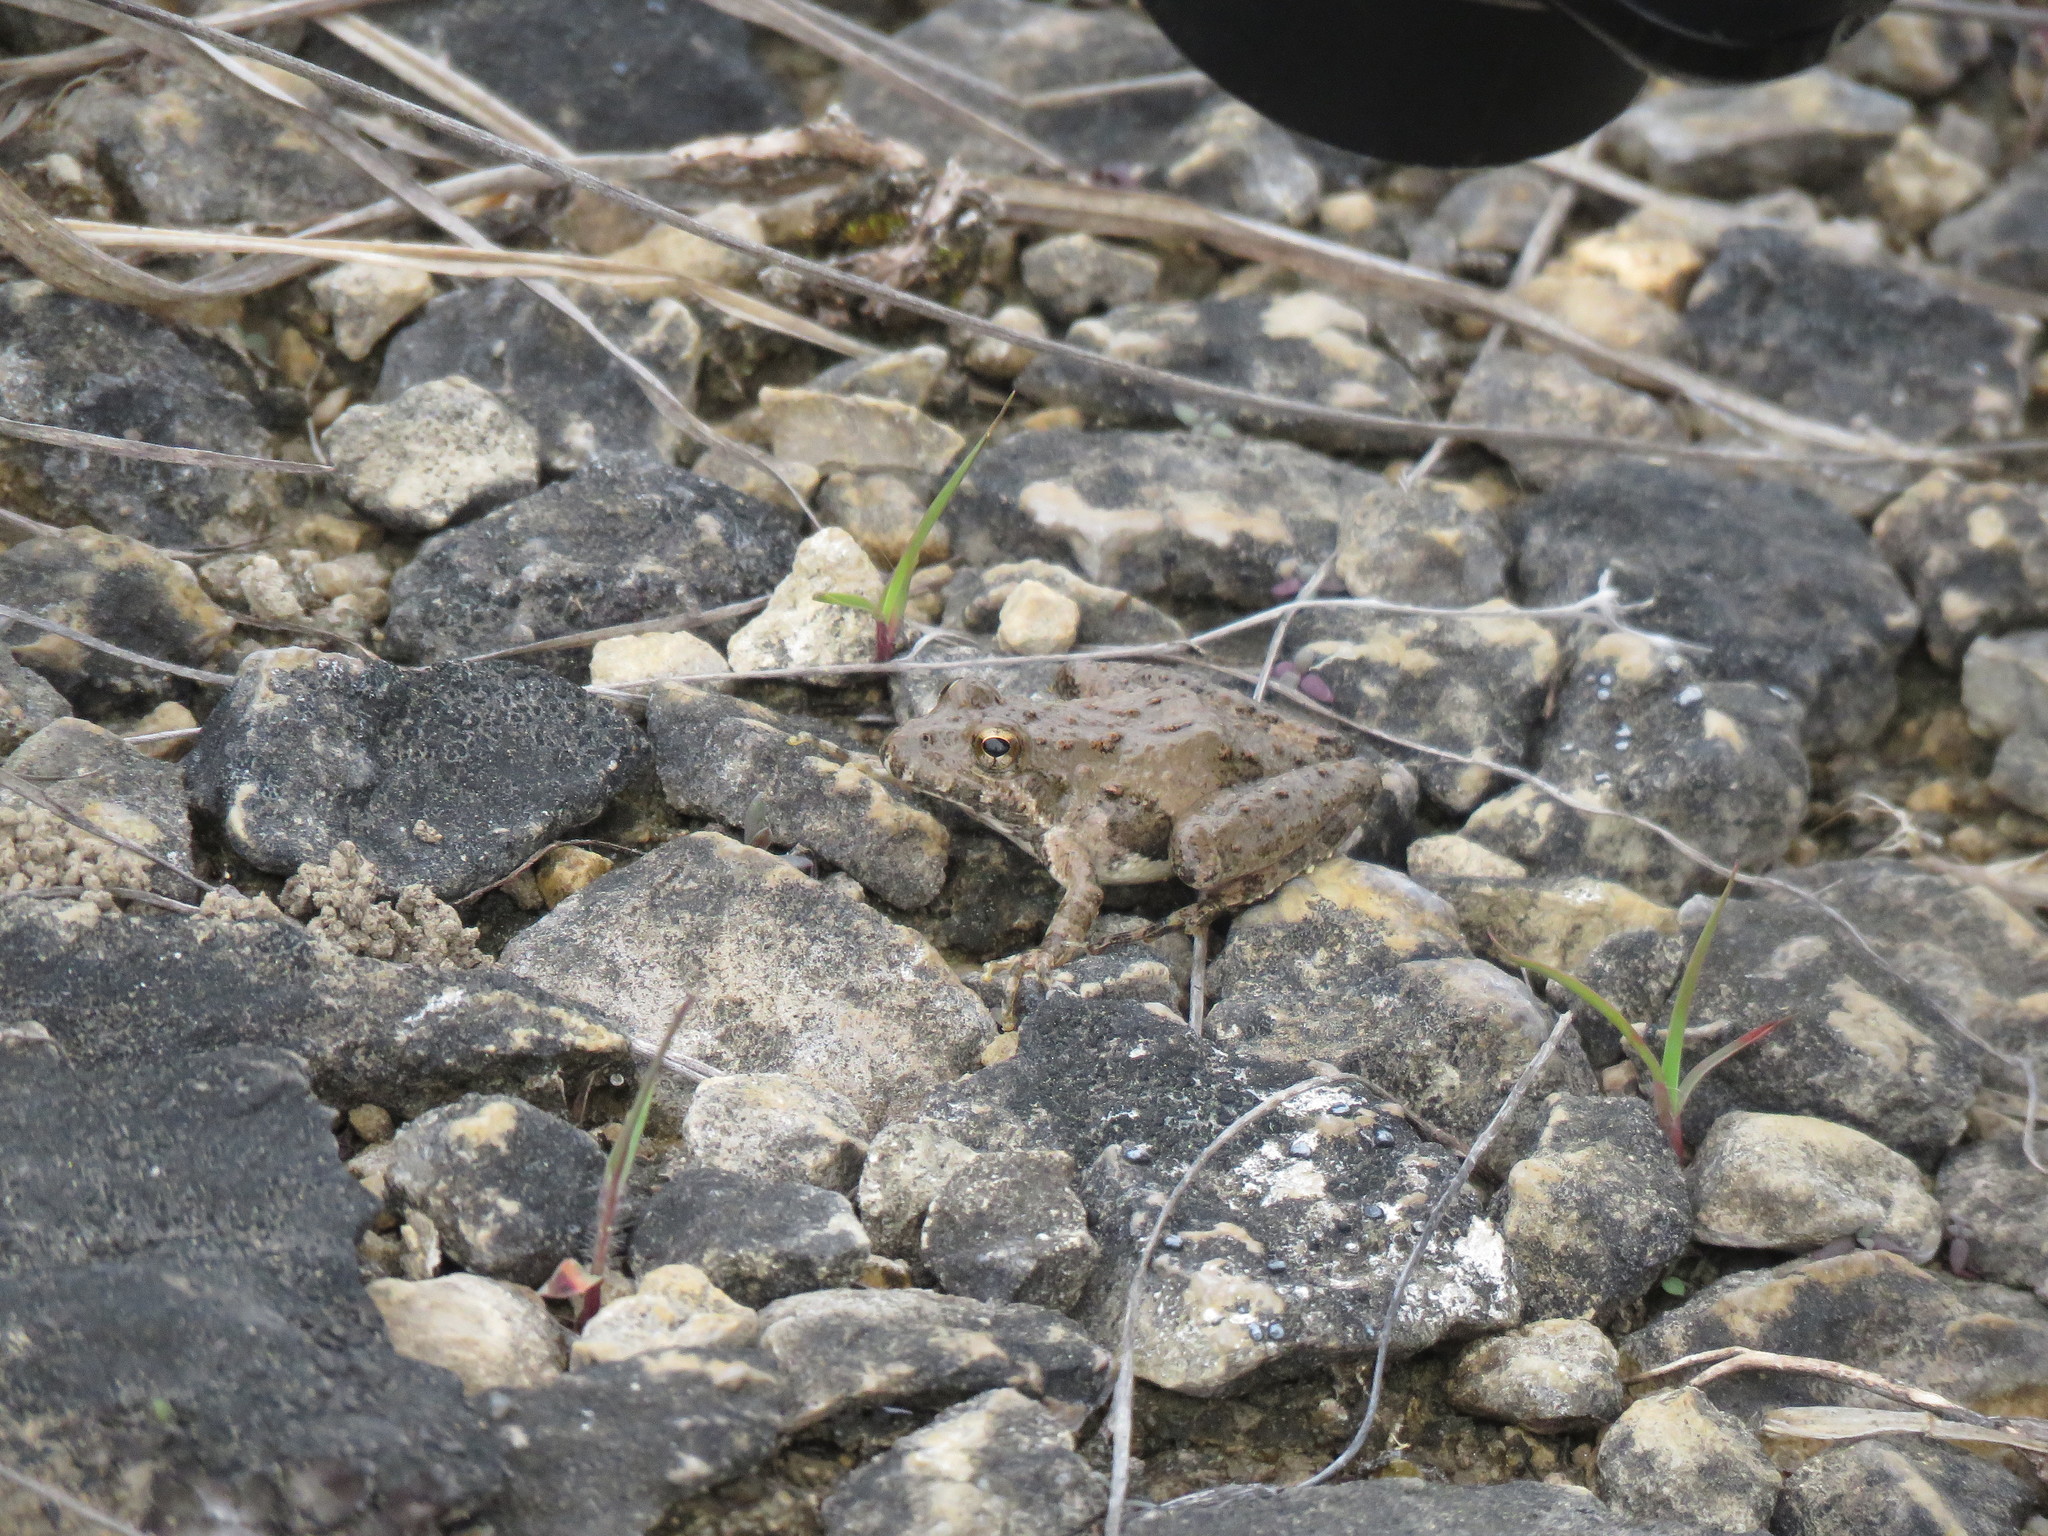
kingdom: Animalia
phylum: Chordata
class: Amphibia
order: Anura
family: Hylidae
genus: Acris
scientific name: Acris blanchardi
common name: Blanchard's cricket frog
